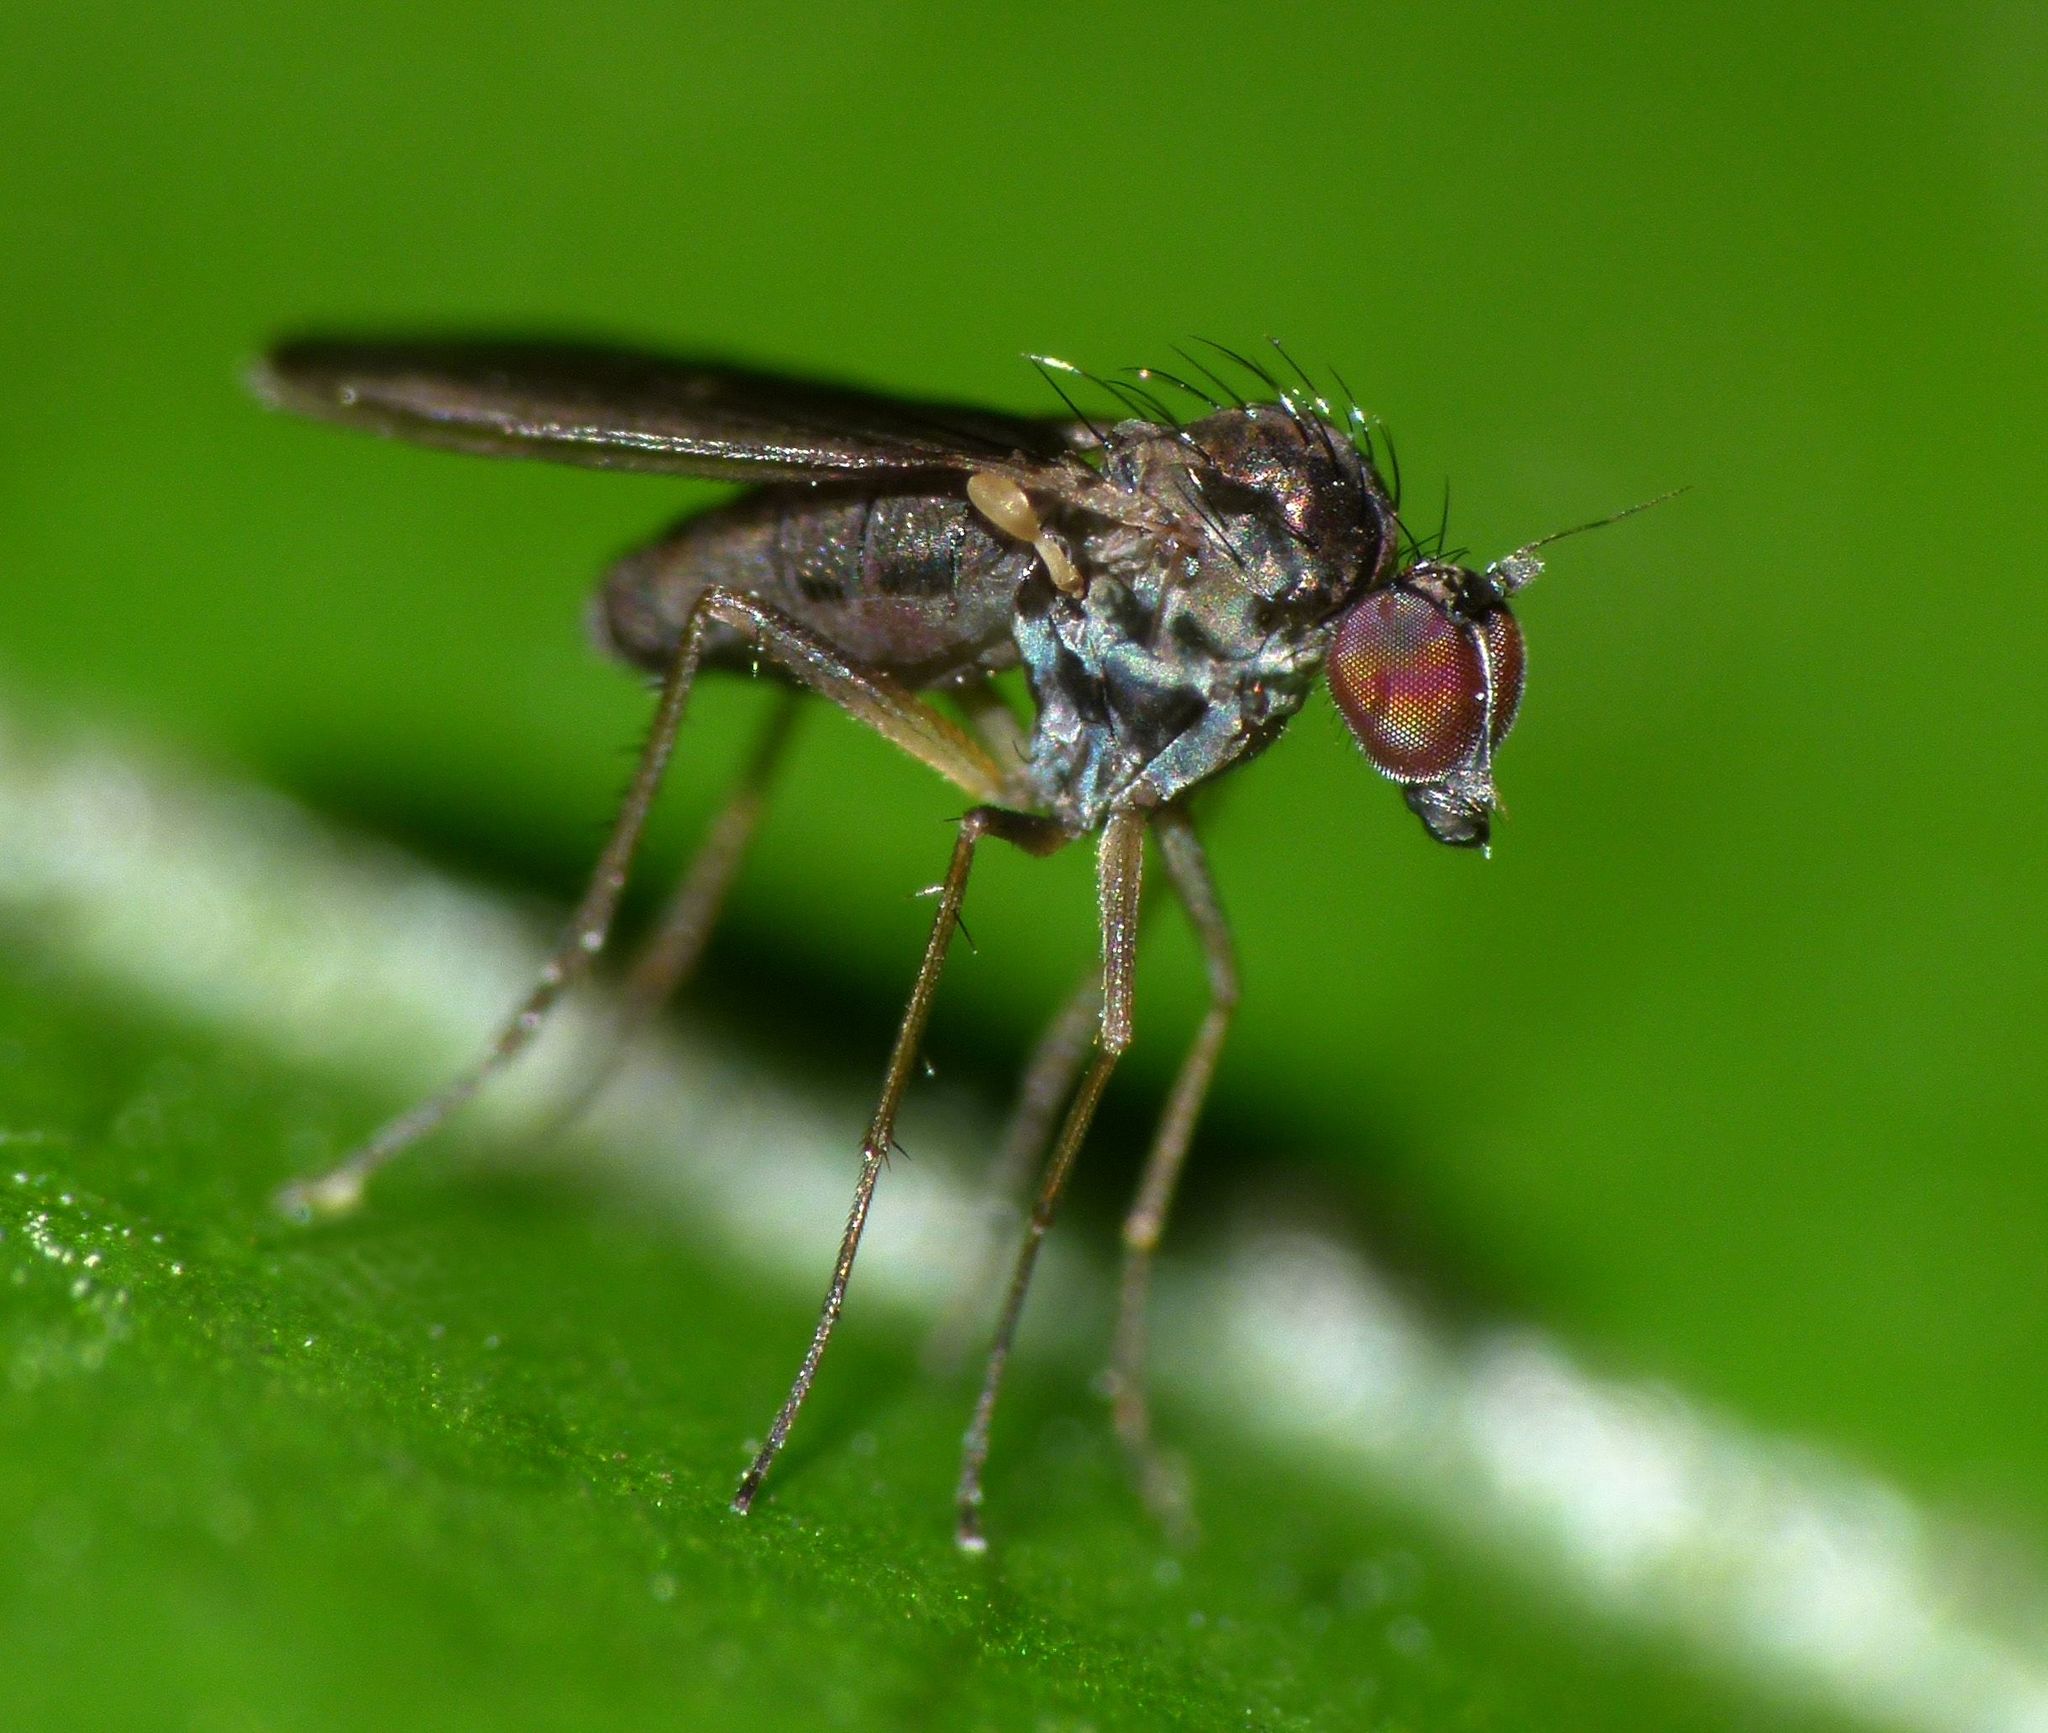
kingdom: Animalia
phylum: Arthropoda
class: Insecta
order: Diptera
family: Dolichopodidae
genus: Micropygus
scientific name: Micropygus vagans
